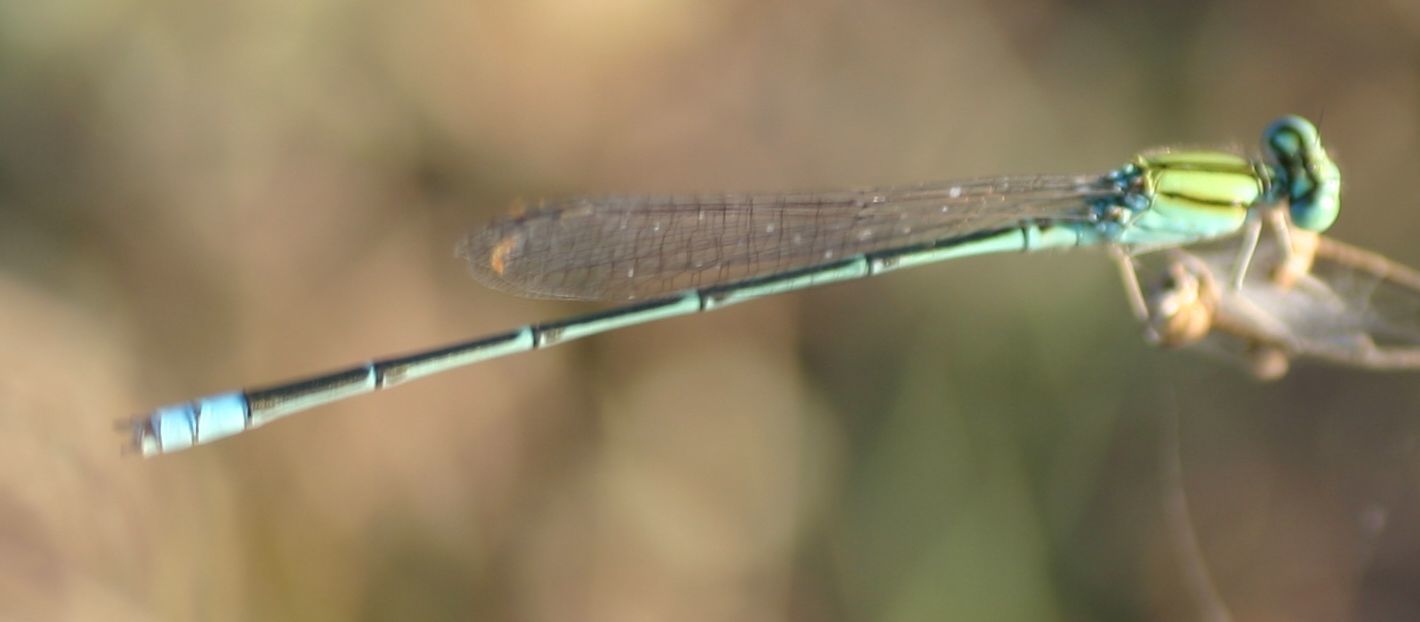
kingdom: Animalia
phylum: Arthropoda
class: Insecta
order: Odonata
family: Coenagrionidae
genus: Pseudagrion
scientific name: Pseudagrion decorum
